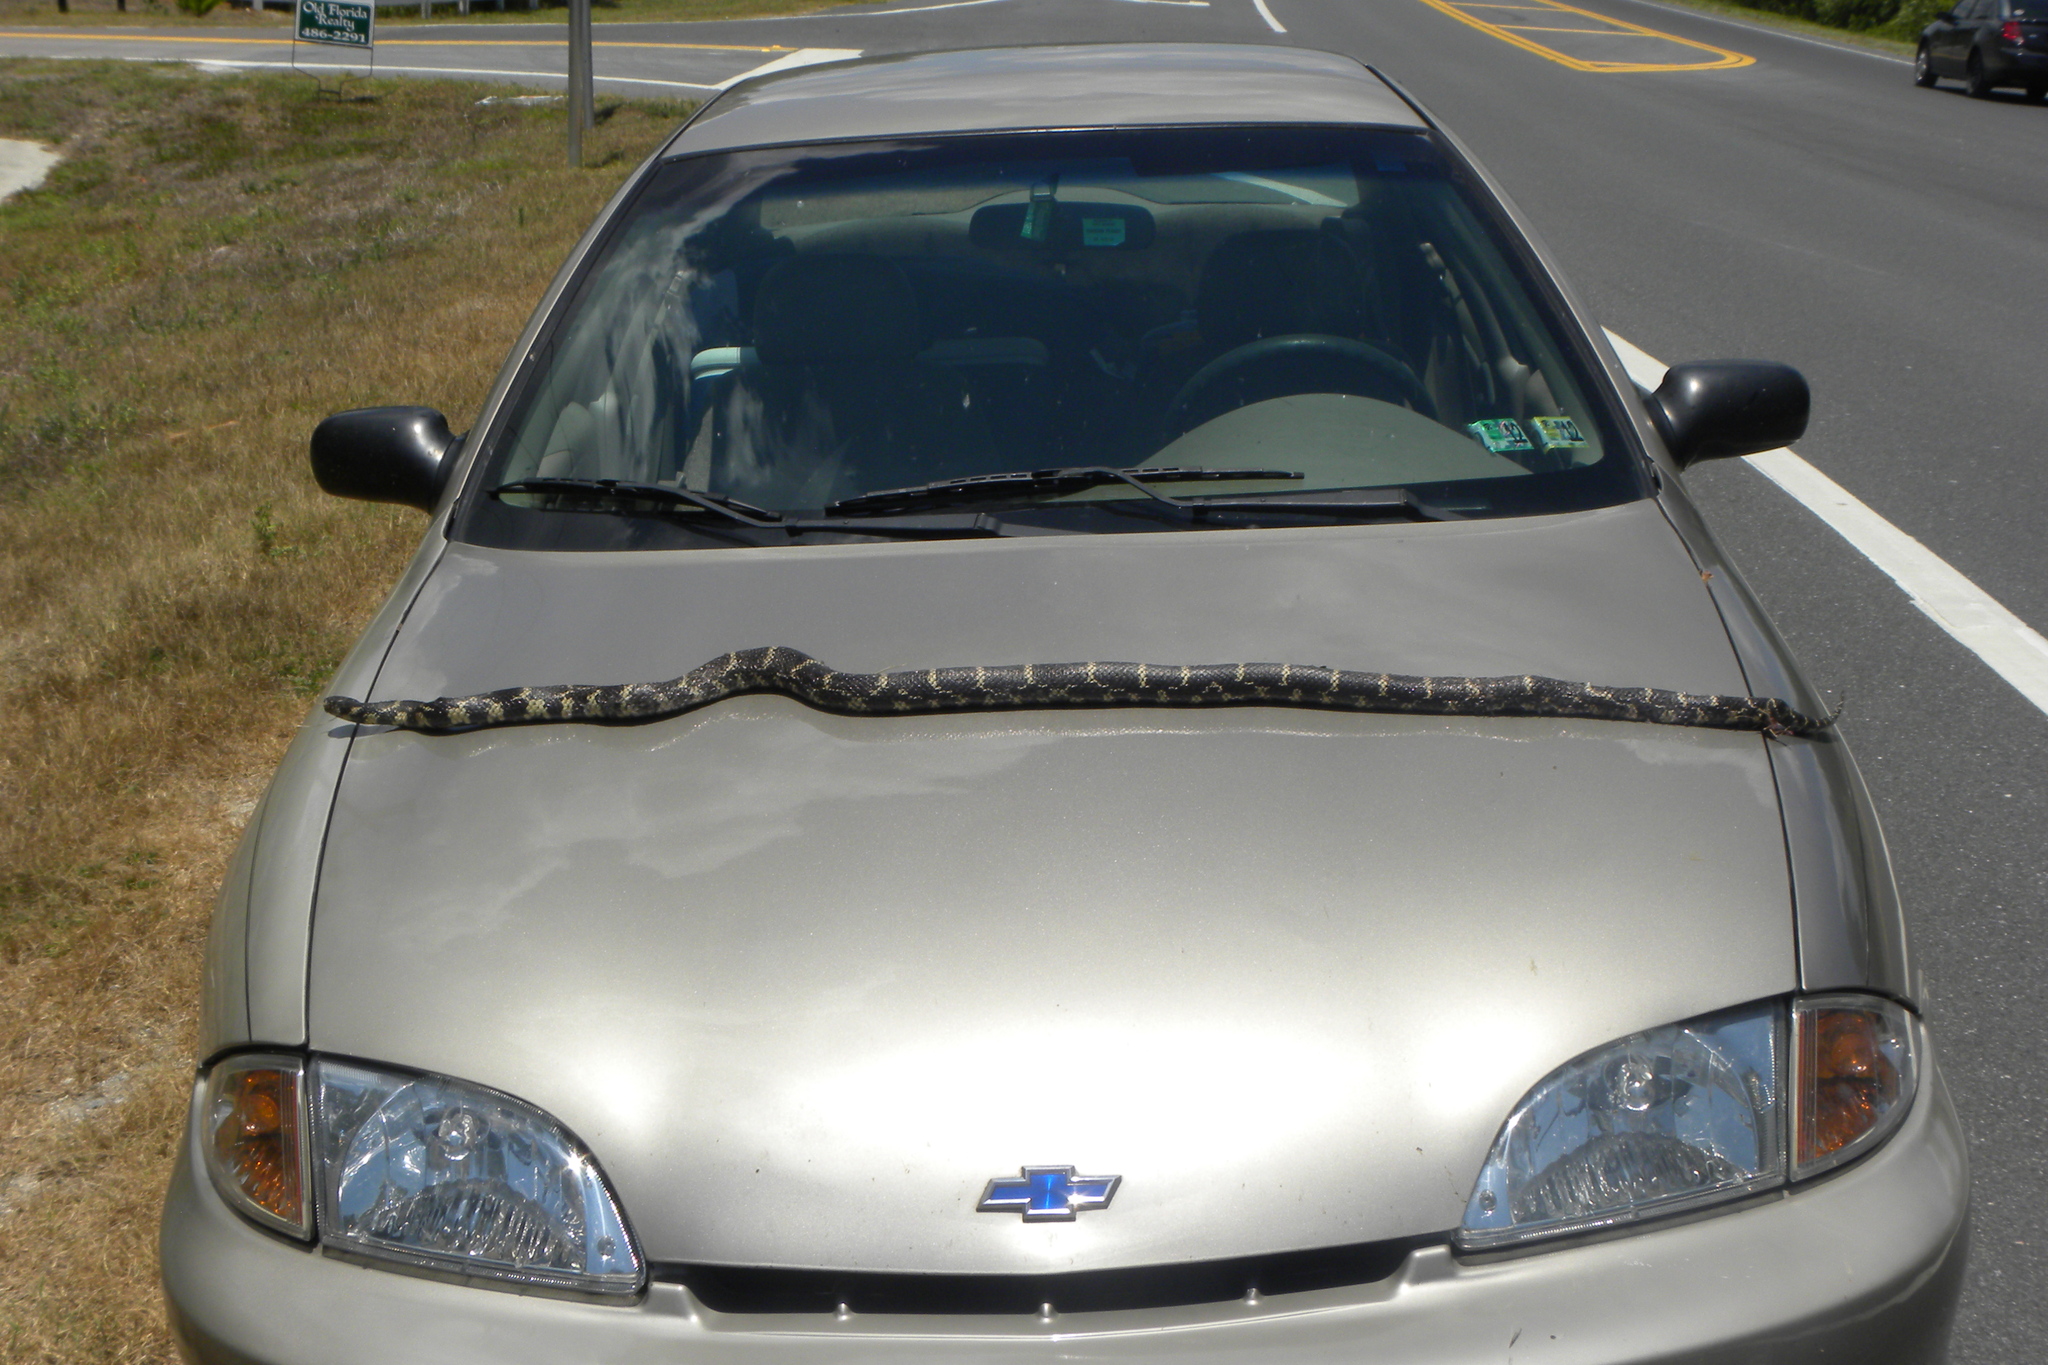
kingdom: Animalia
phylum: Chordata
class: Squamata
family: Colubridae
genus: Lampropeltis
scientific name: Lampropeltis getula
